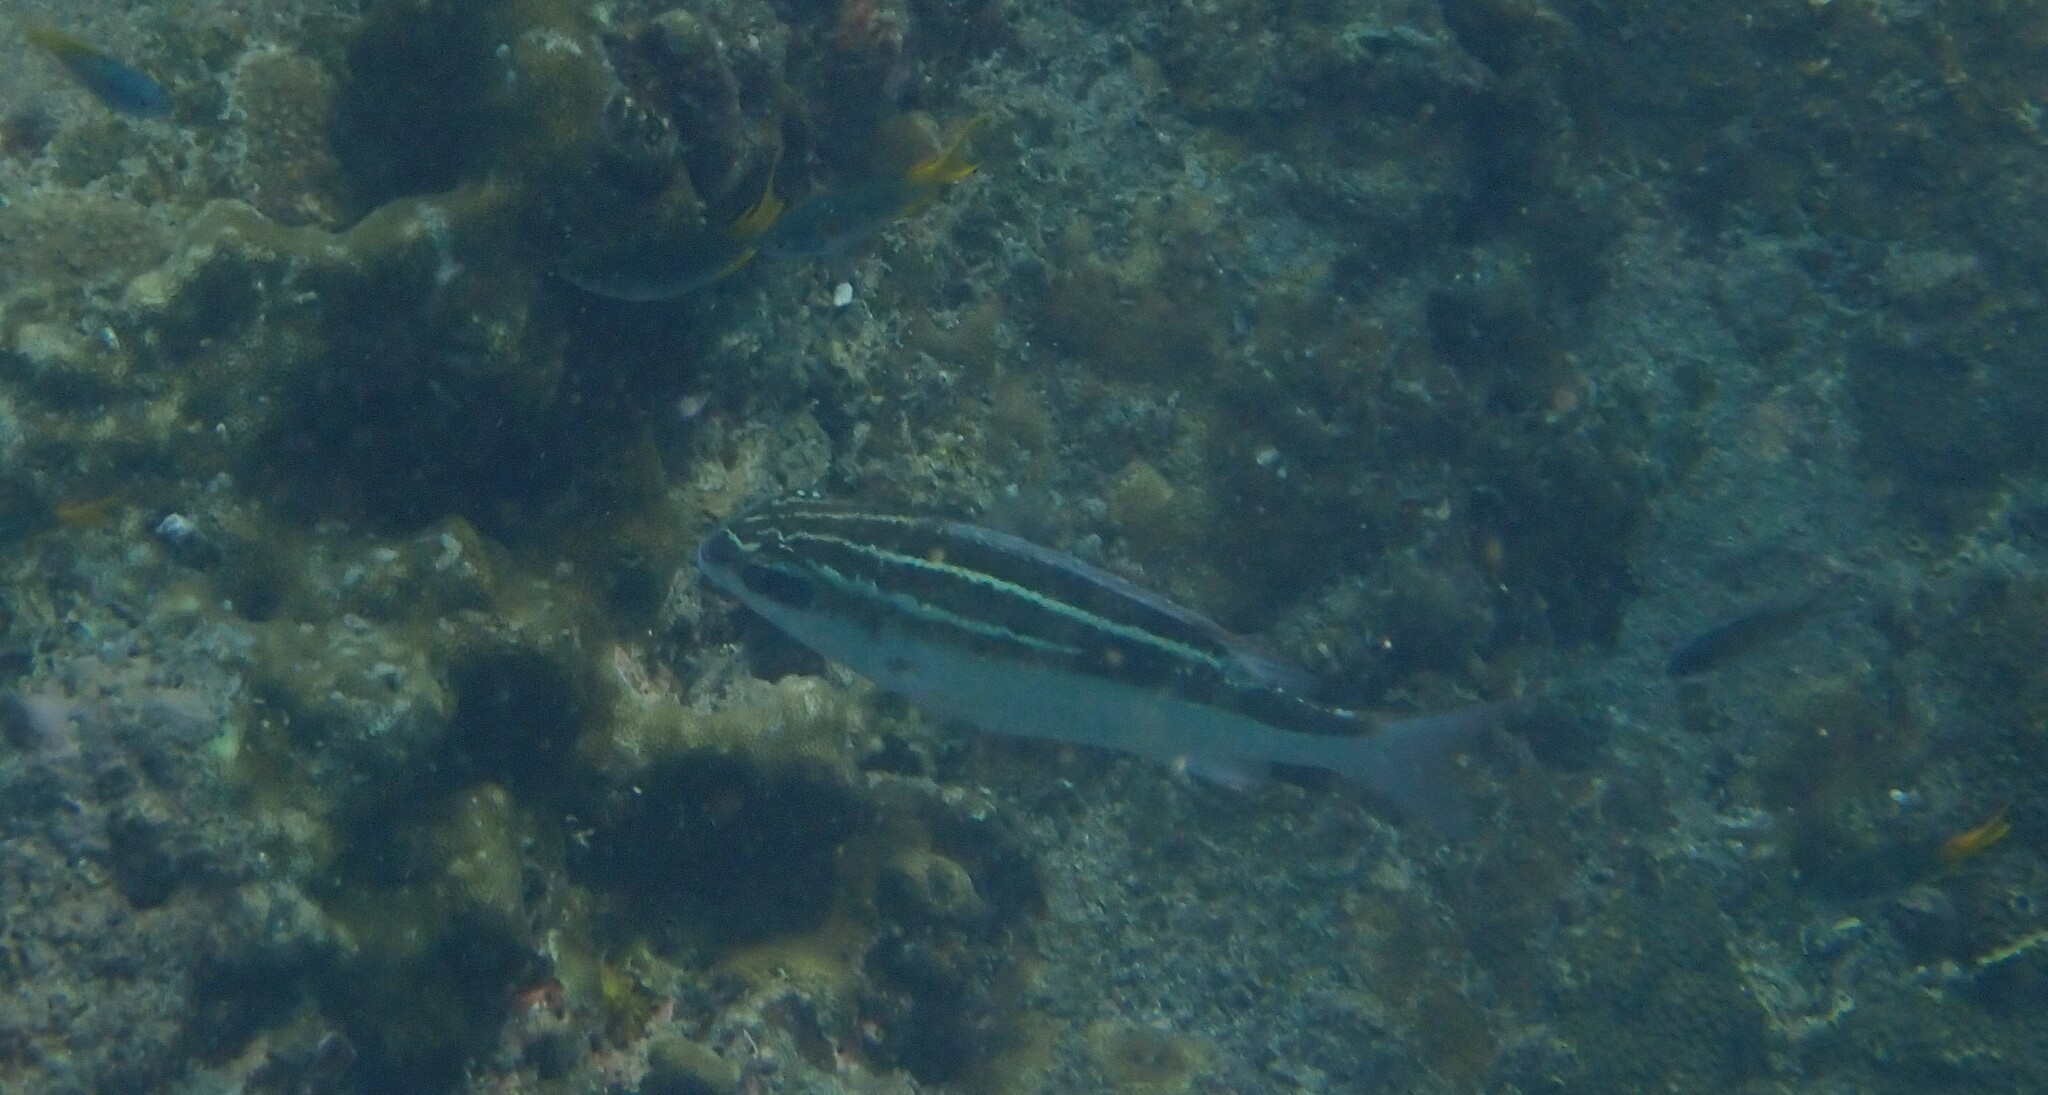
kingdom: Animalia
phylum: Chordata
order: Perciformes
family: Nemipteridae
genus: Scolopsis
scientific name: Scolopsis lineata
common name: Striped monocle bream
